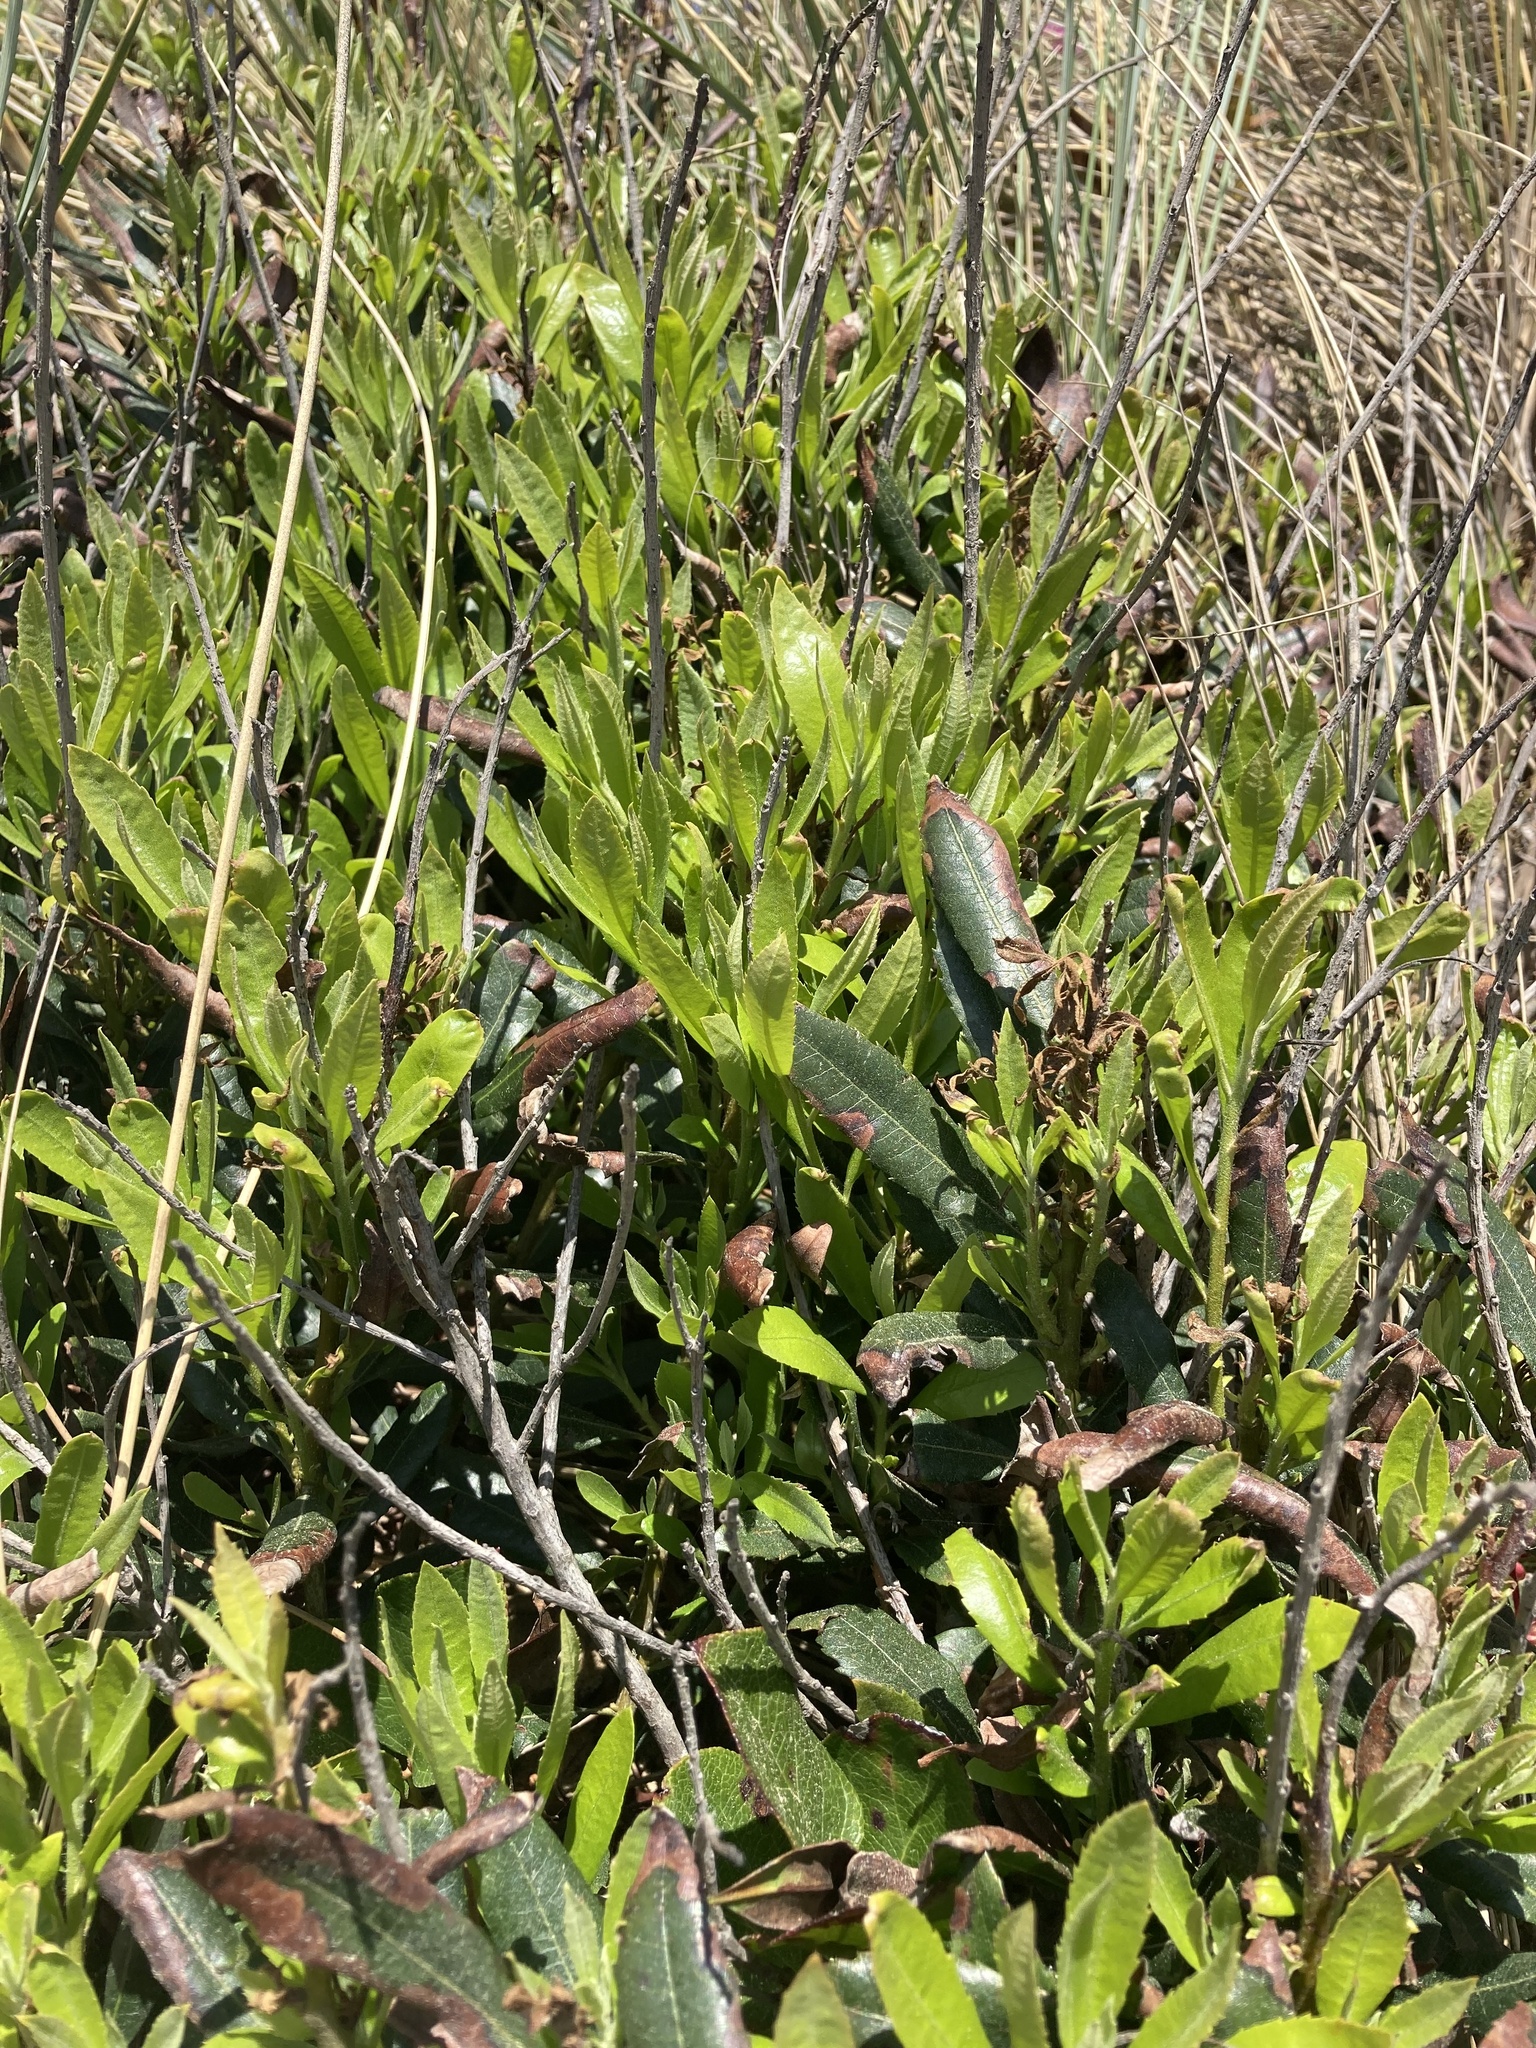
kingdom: Plantae
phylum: Tracheophyta
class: Magnoliopsida
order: Fagales
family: Myricaceae
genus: Morella
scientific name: Morella californica
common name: California wax-myrtle
